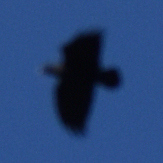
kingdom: Animalia
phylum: Chordata
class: Aves
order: Passeriformes
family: Corvidae
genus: Corvus
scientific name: Corvus albicollis
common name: White-necked raven
